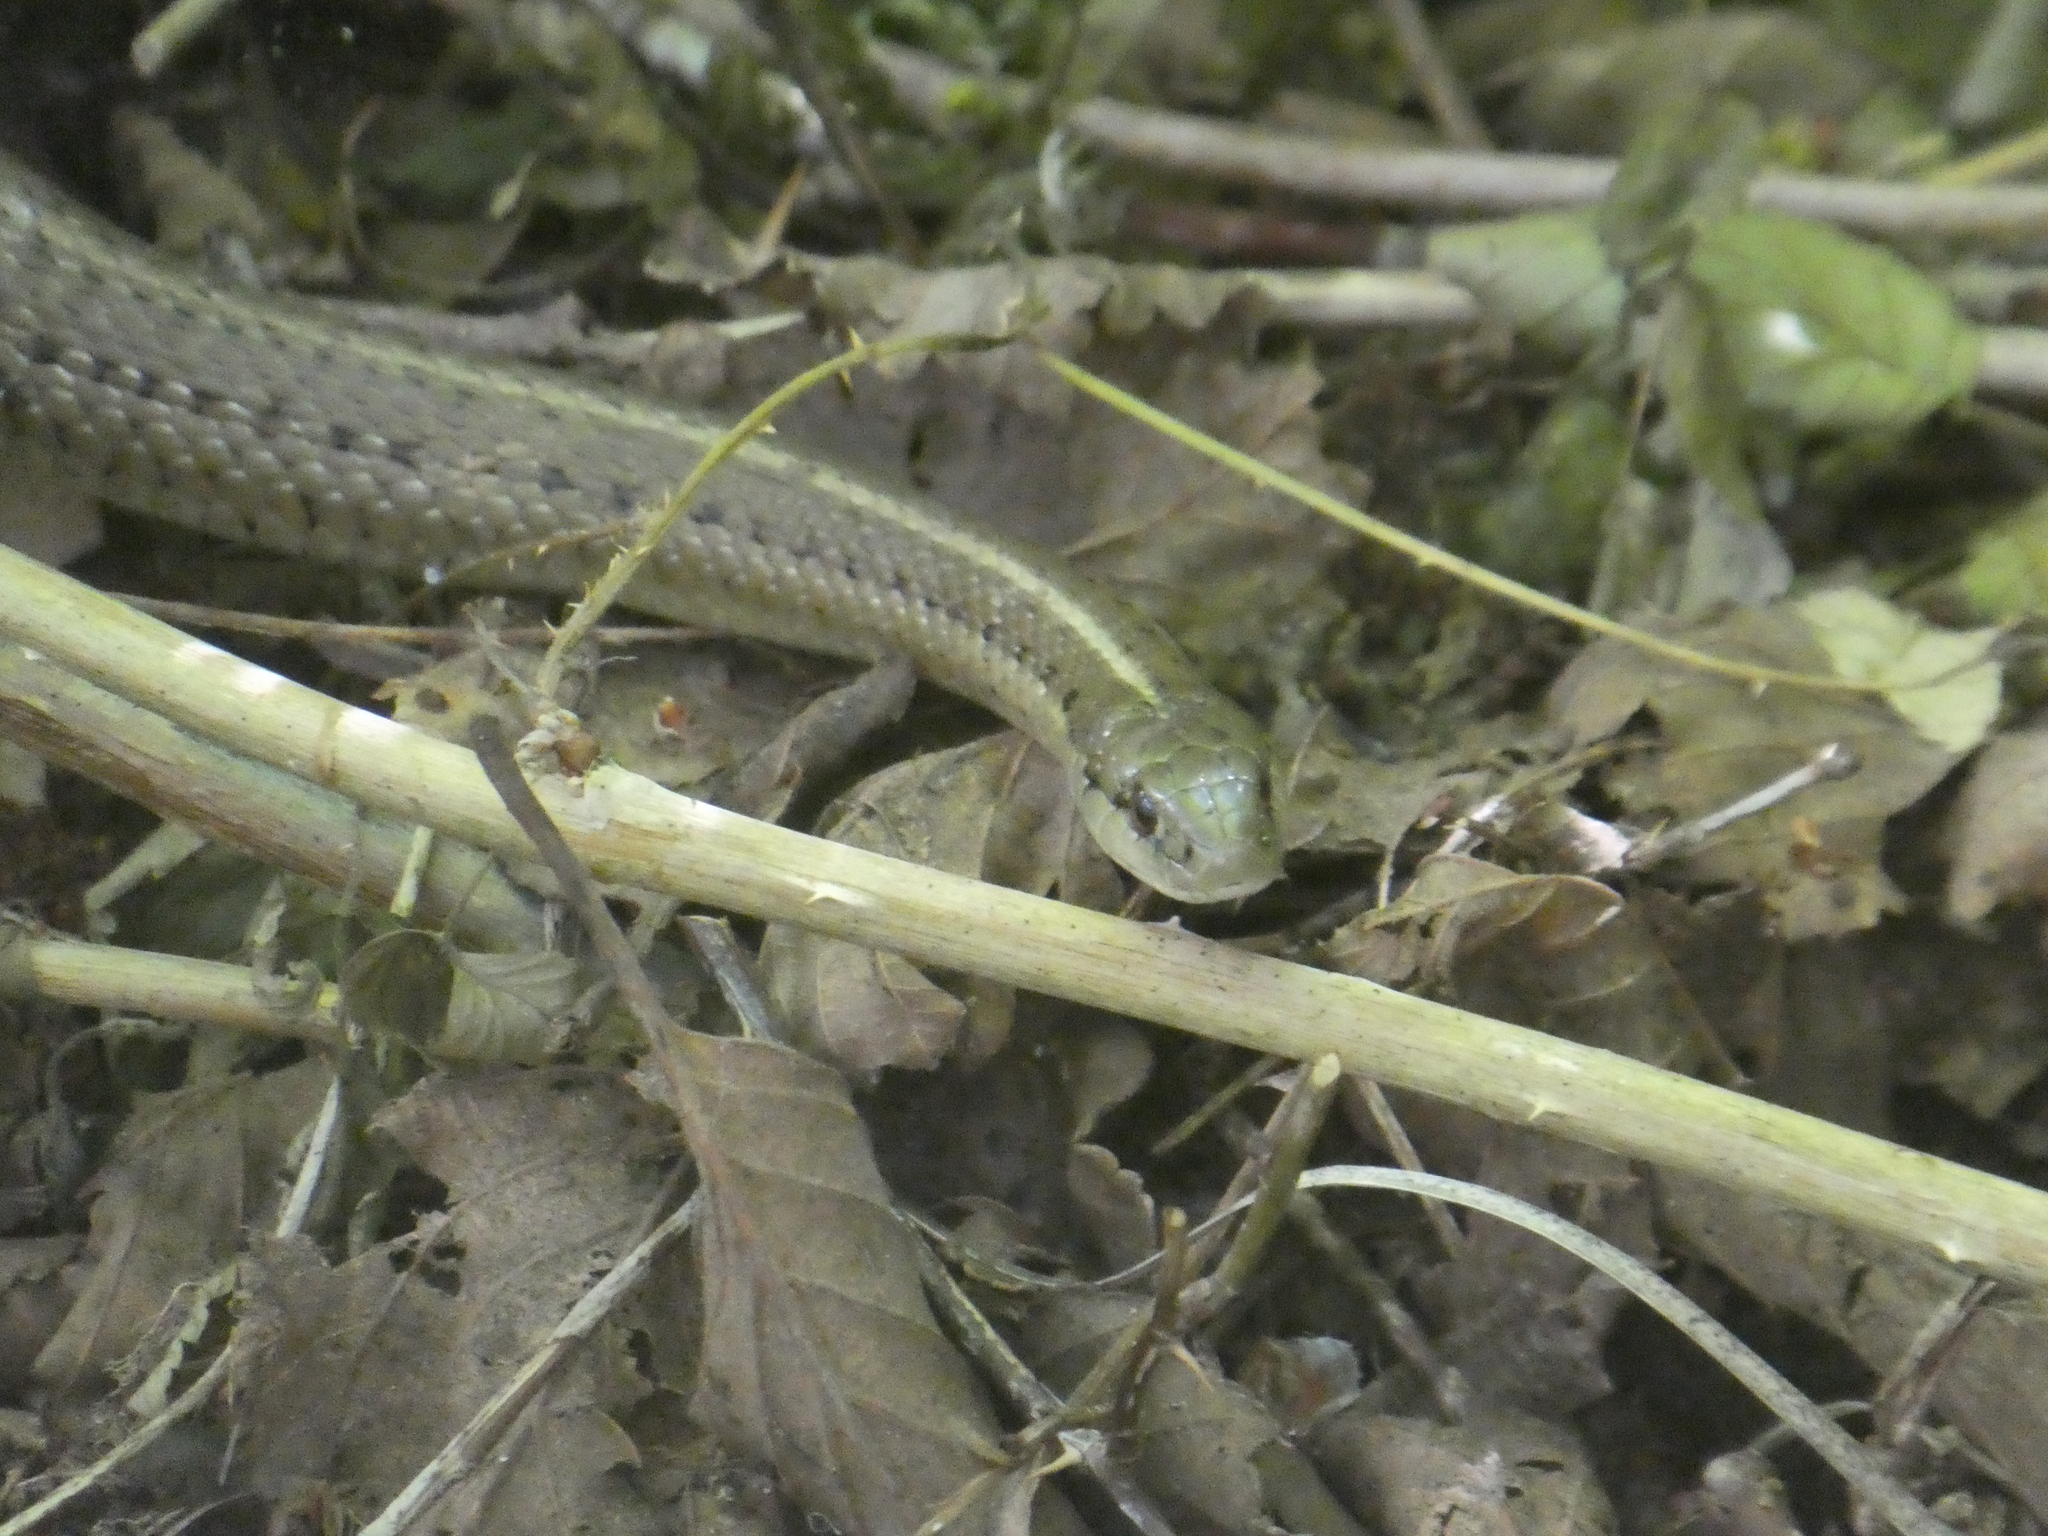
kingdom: Animalia
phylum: Chordata
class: Squamata
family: Colubridae
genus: Thamnophis
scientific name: Thamnophis ordinoides
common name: Northwestern garter snake
